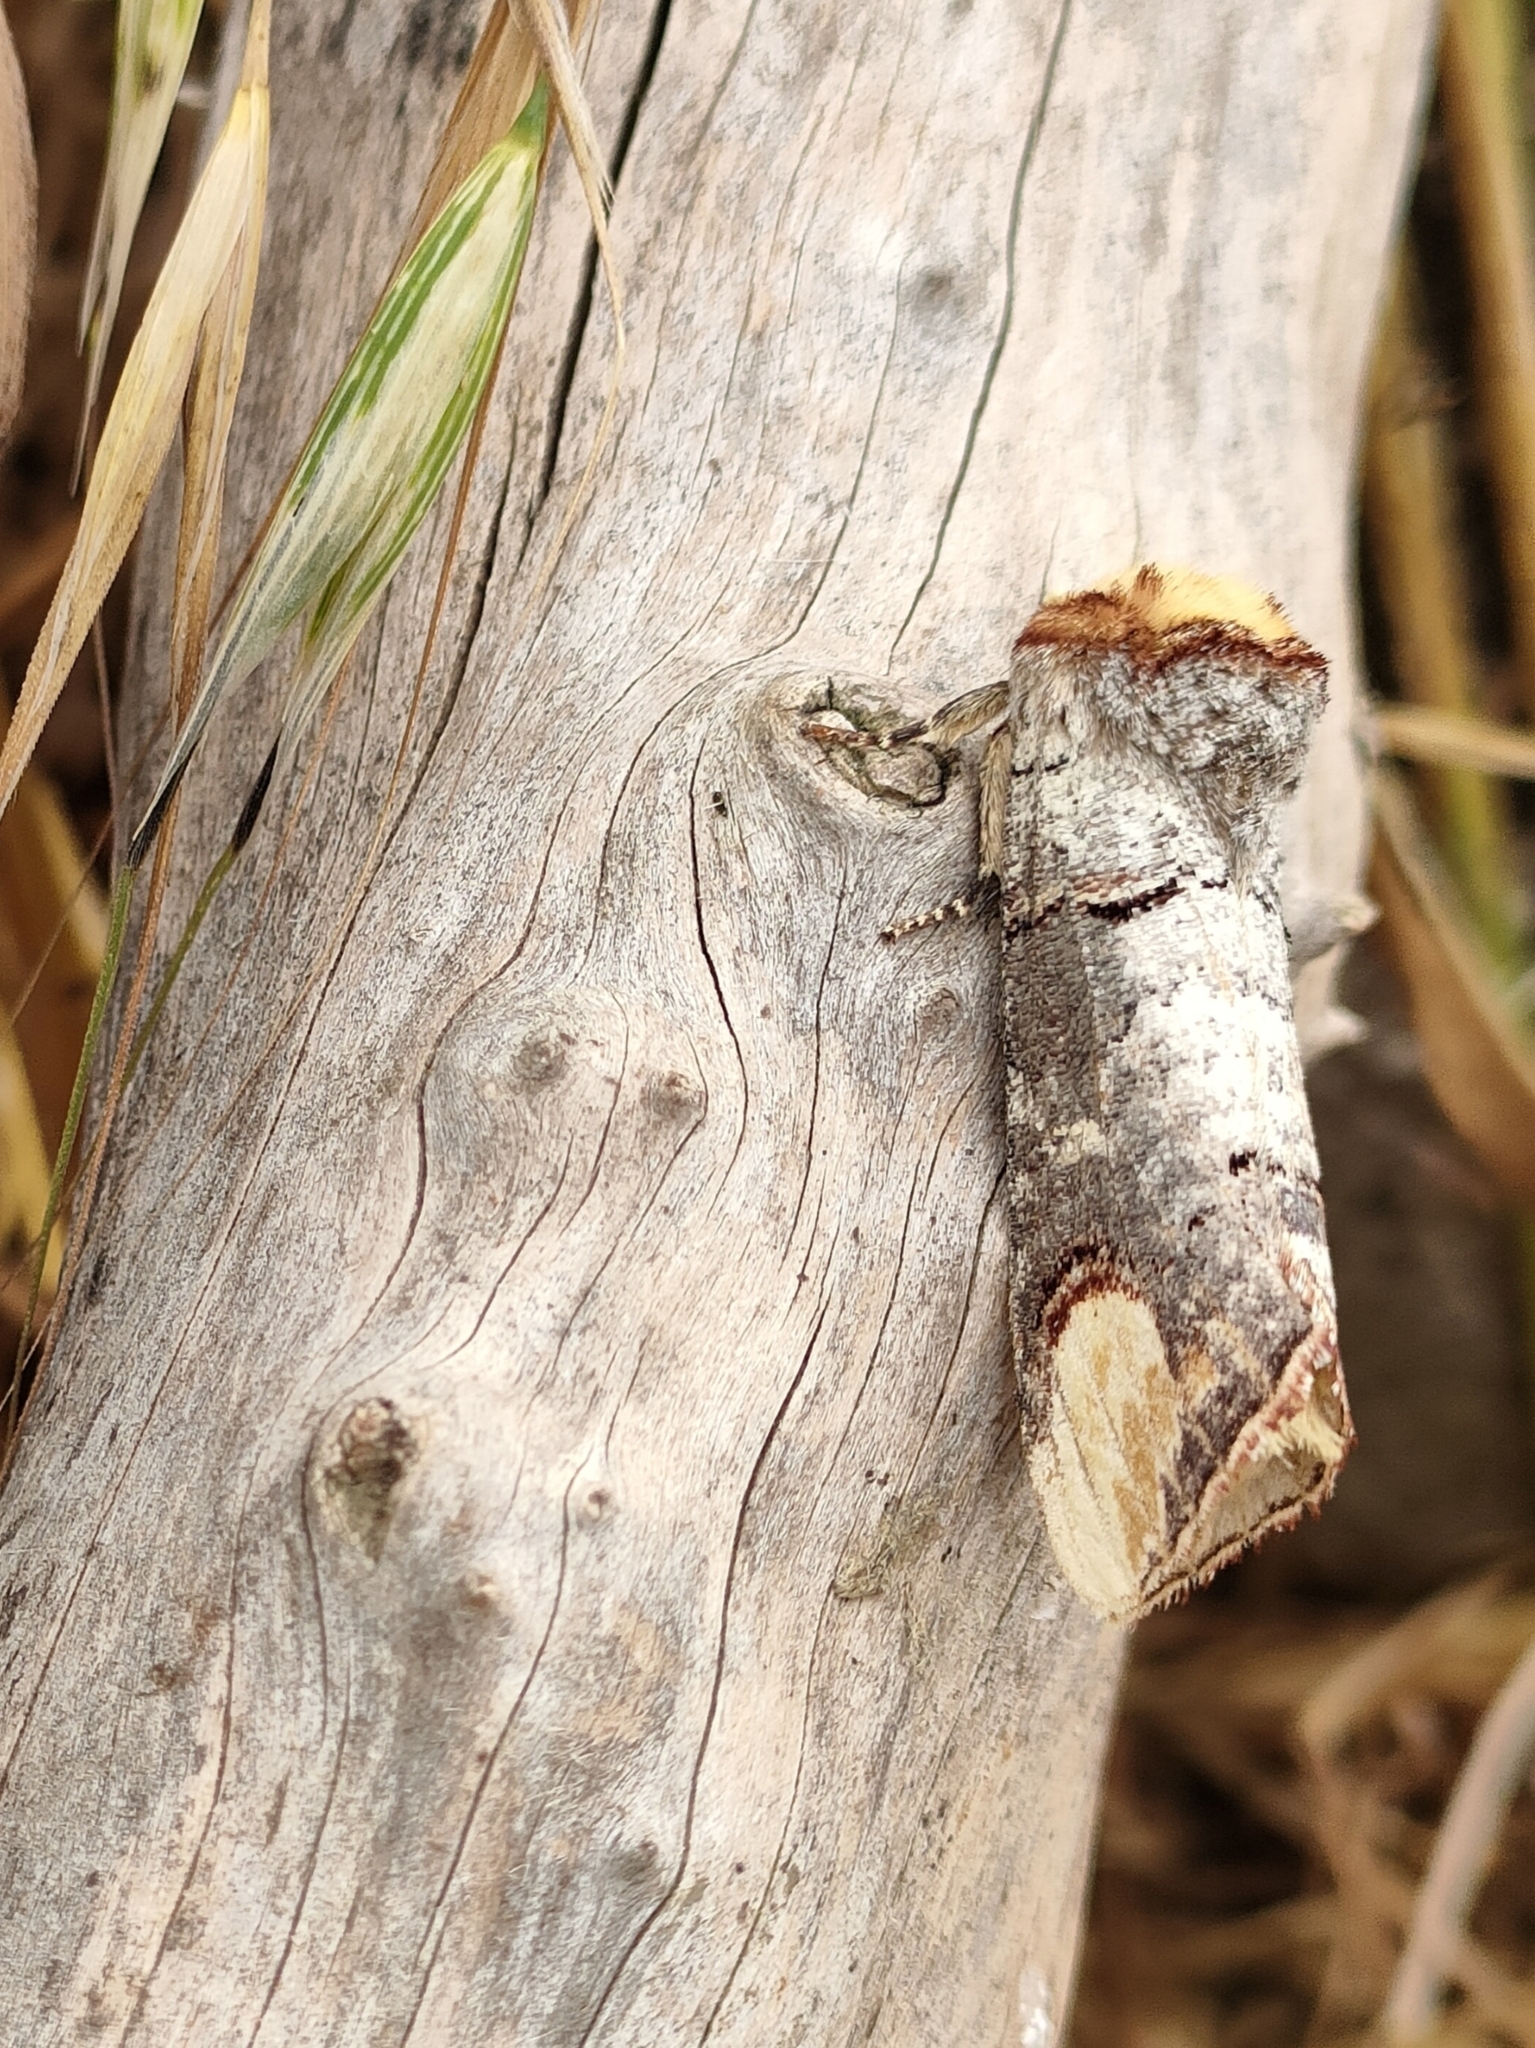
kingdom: Animalia
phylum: Arthropoda
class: Insecta
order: Lepidoptera
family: Notodontidae
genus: Phalera
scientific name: Phalera bucephala
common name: Buff-tip
